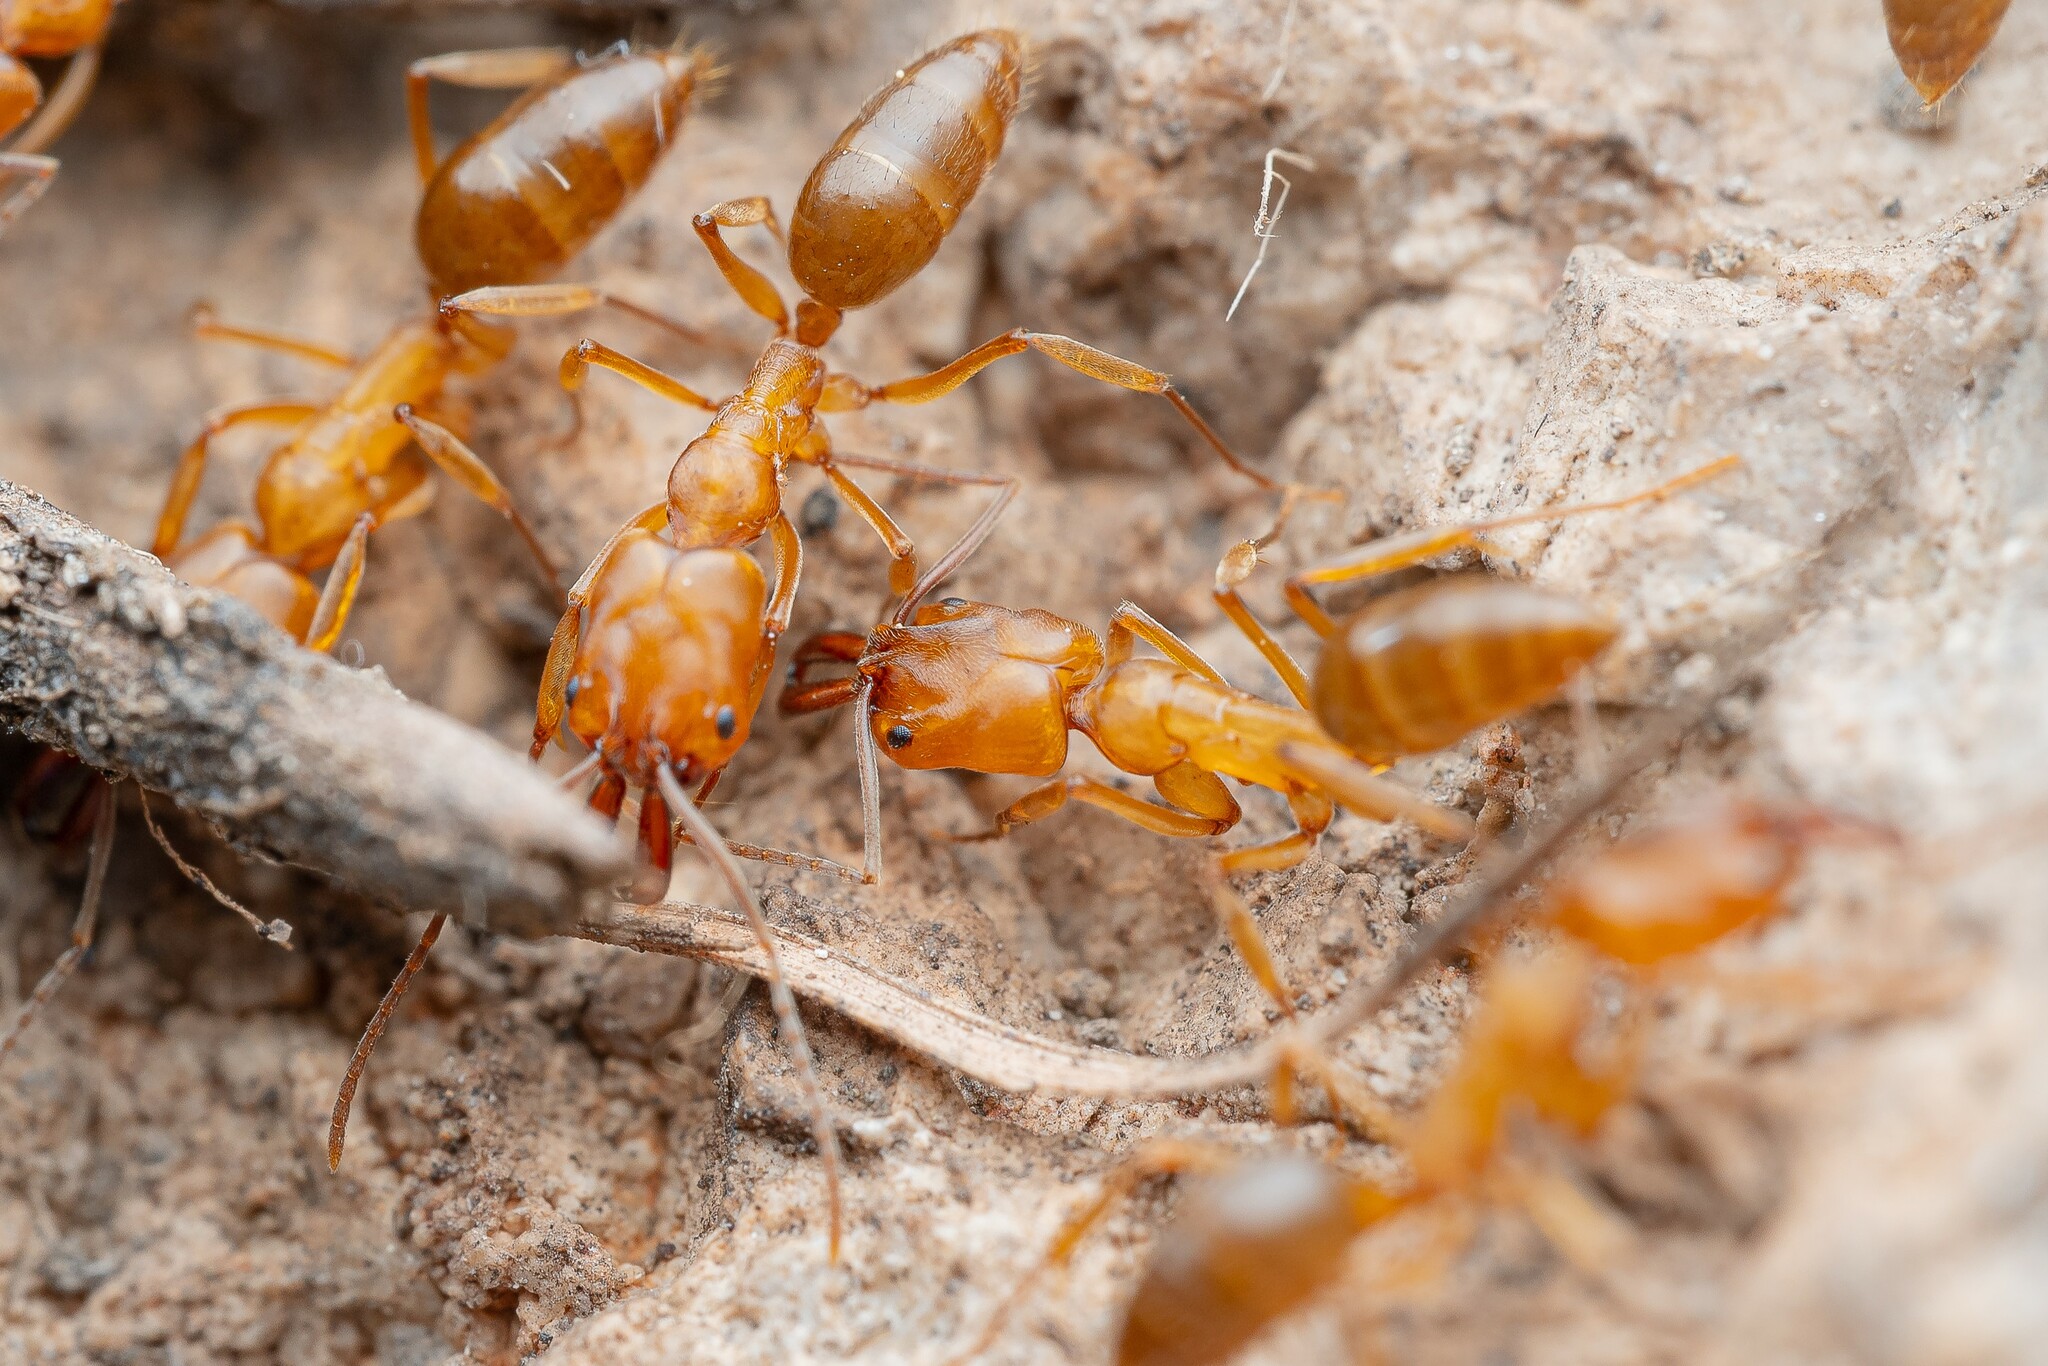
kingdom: Animalia
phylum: Arthropoda
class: Insecta
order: Hymenoptera
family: Formicidae
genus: Odontomachus
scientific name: Odontomachus clarus
